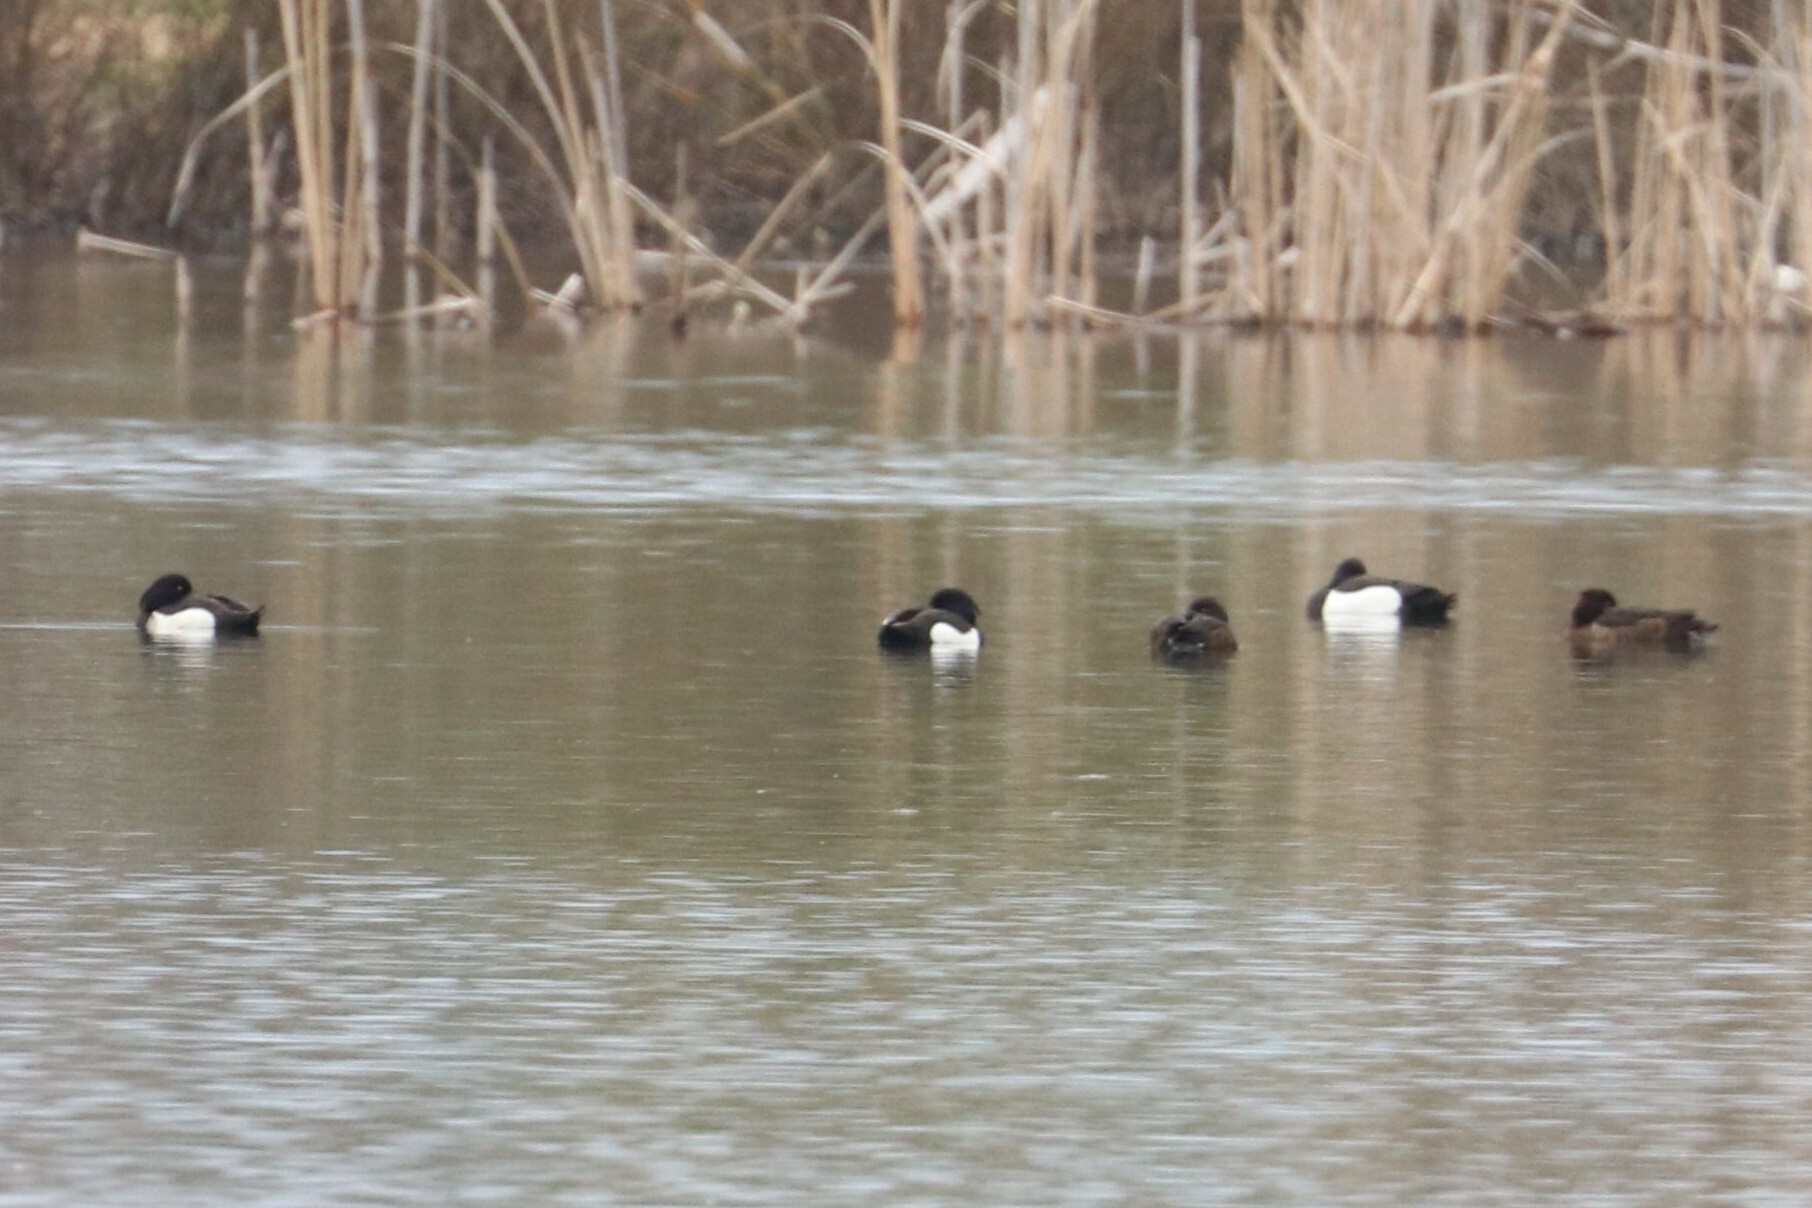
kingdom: Animalia
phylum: Chordata
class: Aves
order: Anseriformes
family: Anatidae
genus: Aythya
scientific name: Aythya fuligula
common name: Tufted duck
